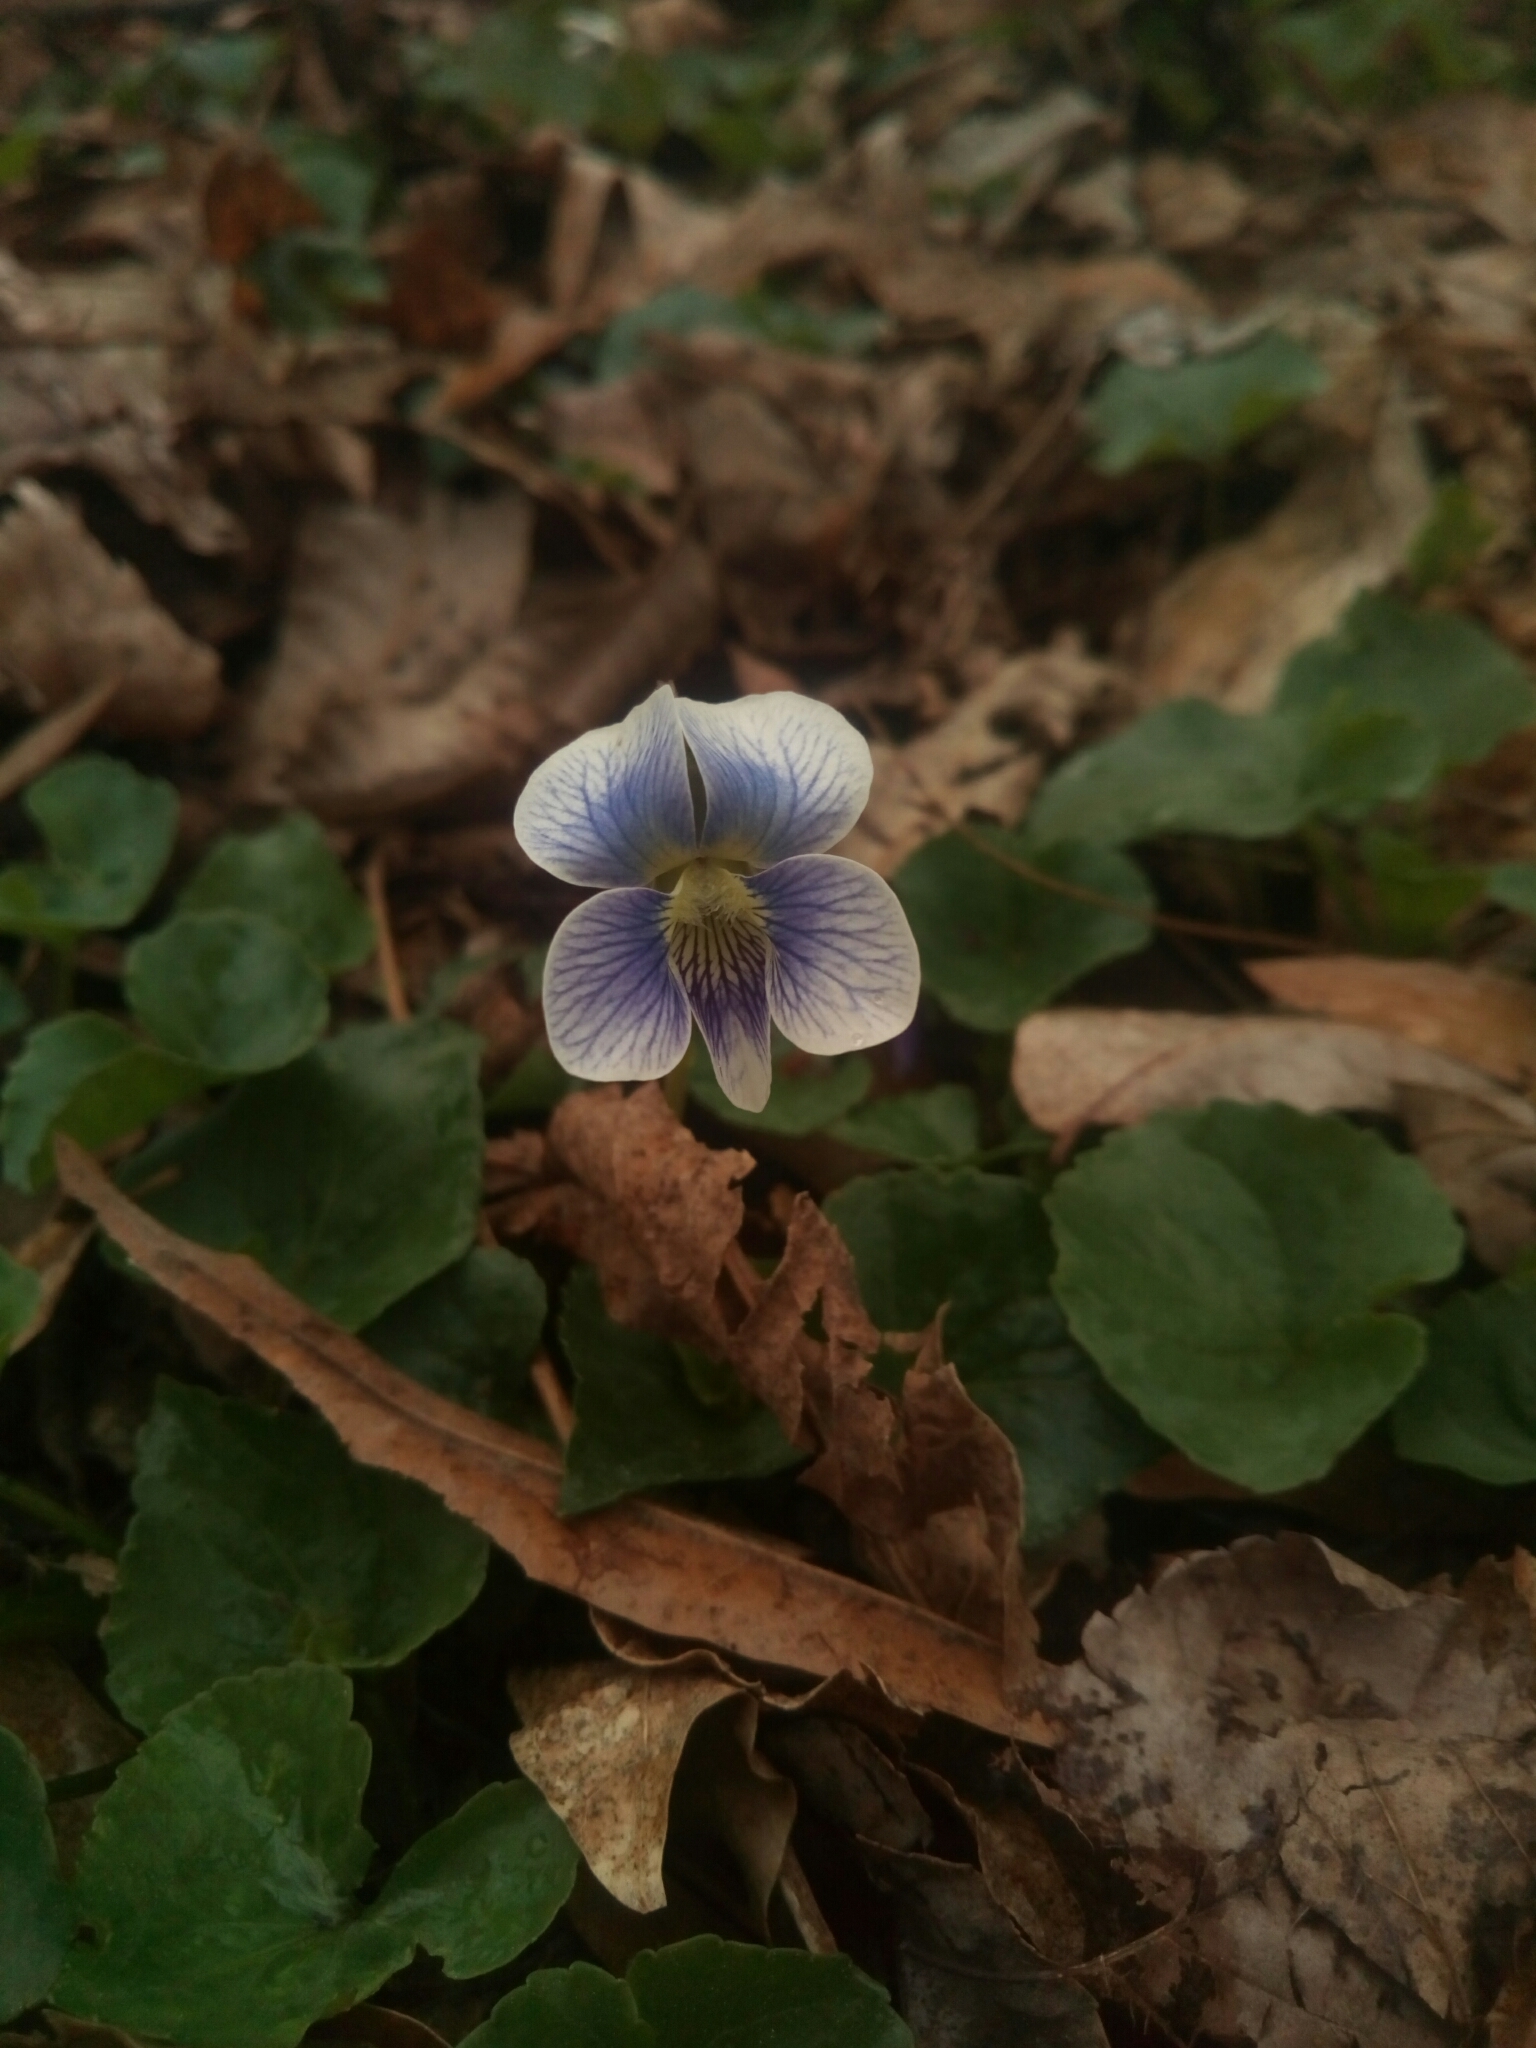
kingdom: Plantae
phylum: Tracheophyta
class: Magnoliopsida
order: Malpighiales
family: Violaceae
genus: Viola
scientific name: Viola sororia
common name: Dooryard violet
